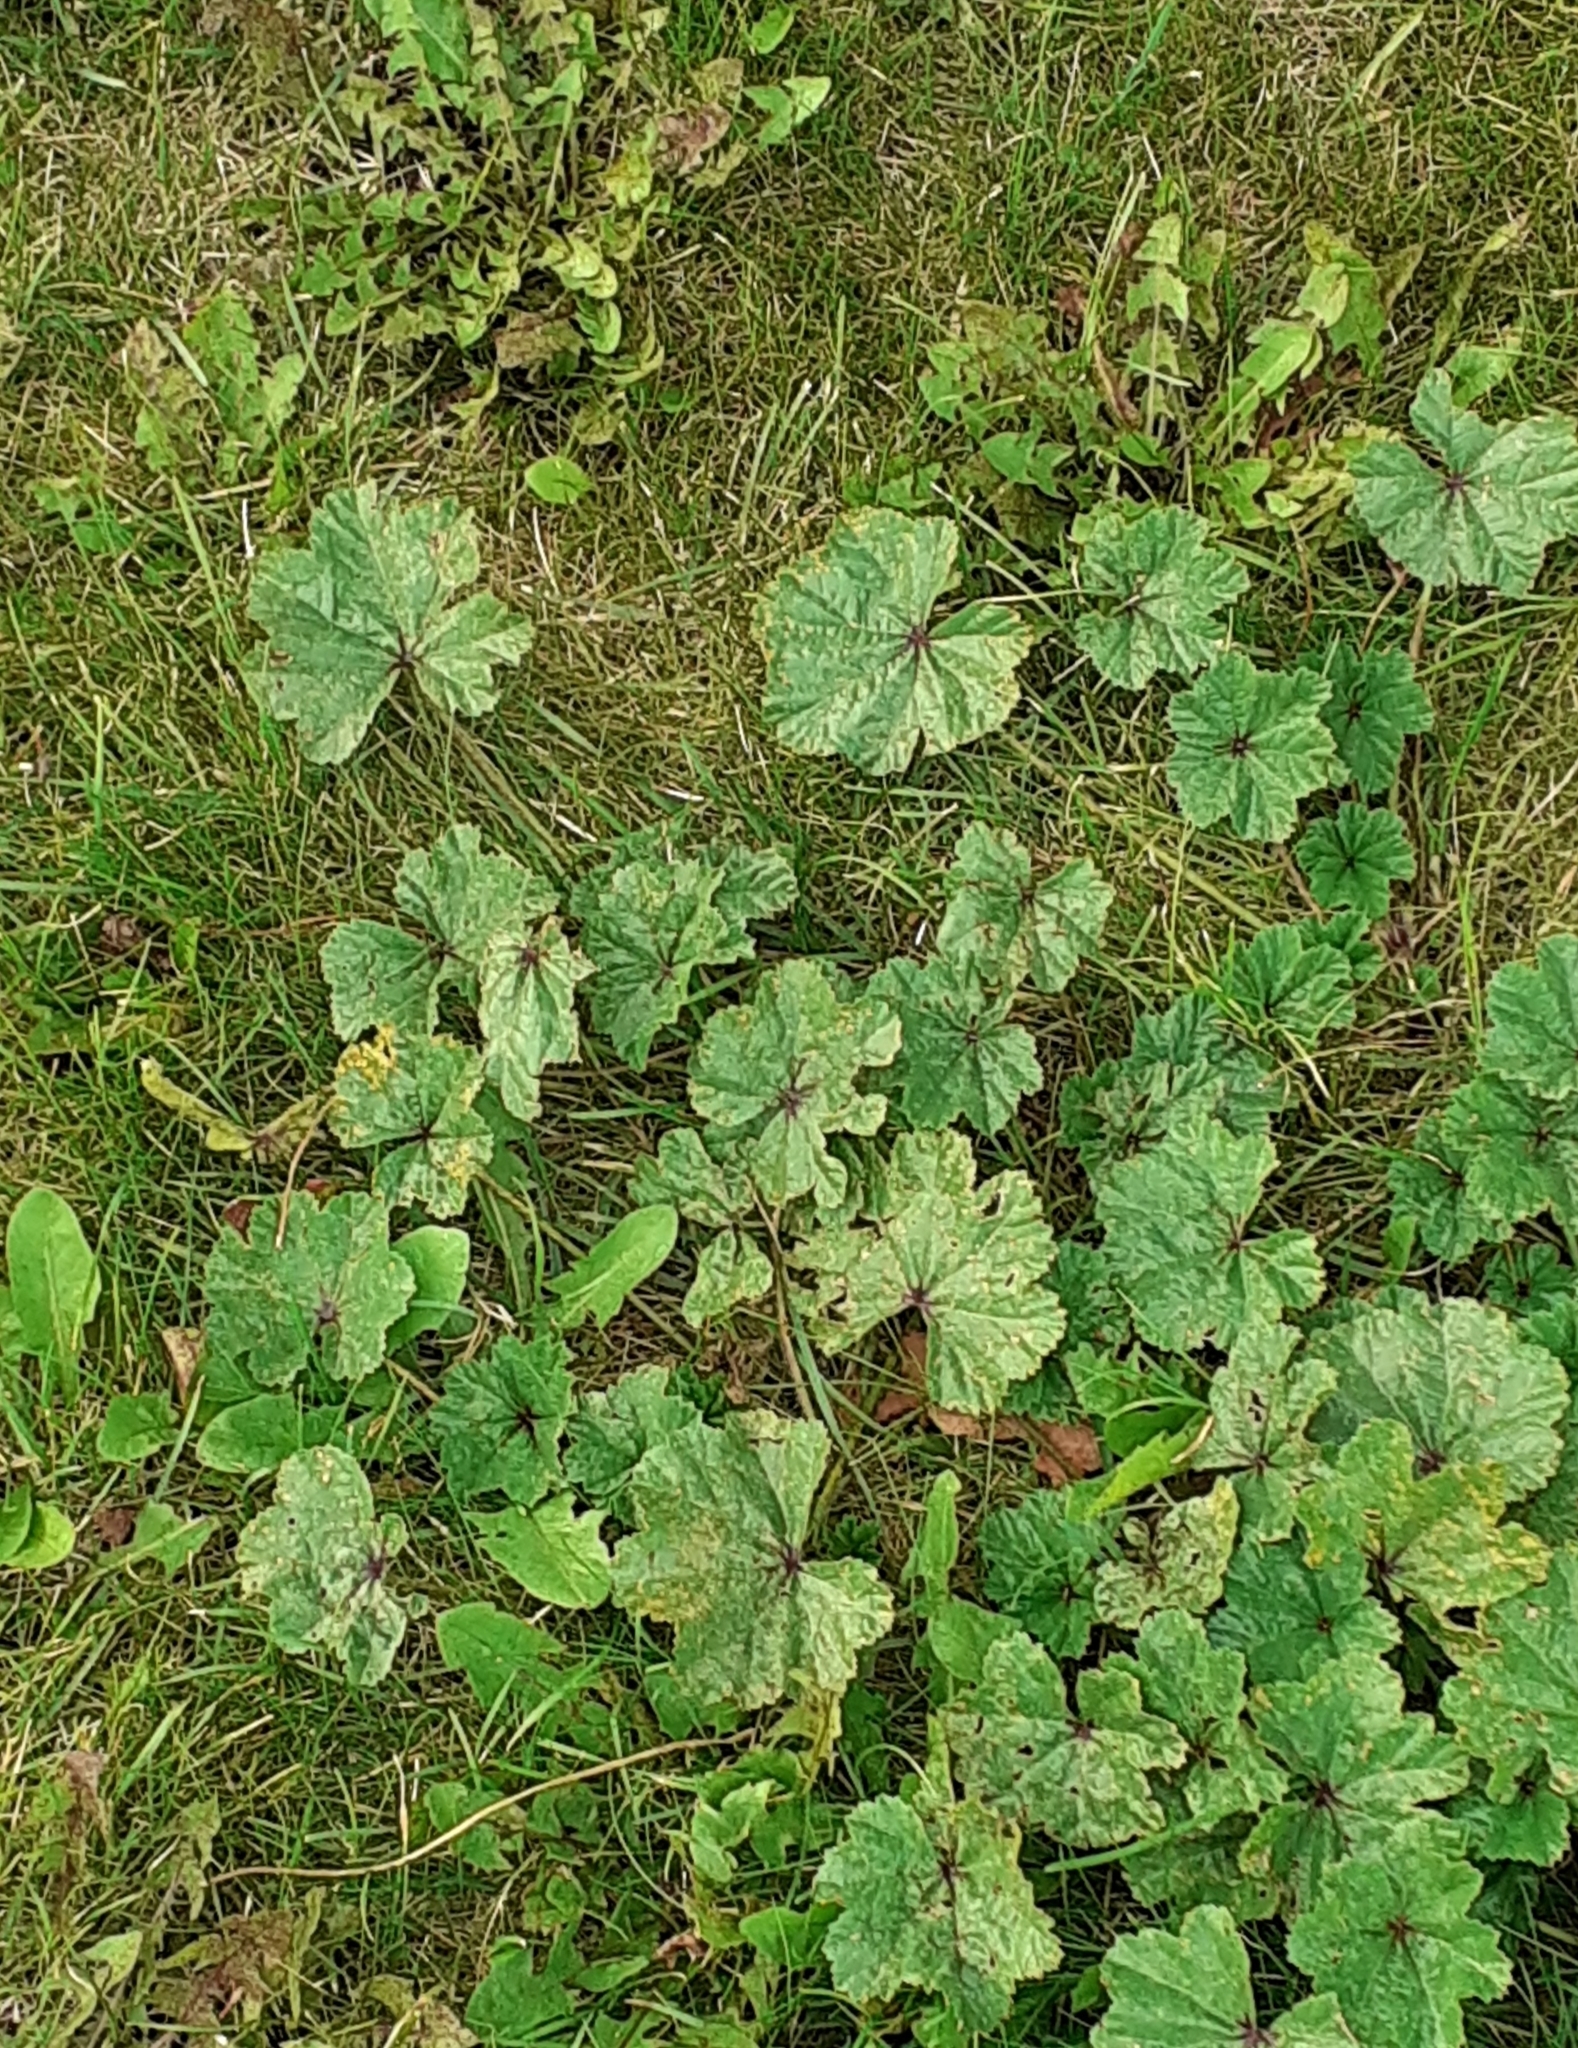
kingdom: Plantae
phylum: Tracheophyta
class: Magnoliopsida
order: Malvales
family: Malvaceae
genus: Malva
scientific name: Malva sylvestris
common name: Common mallow
